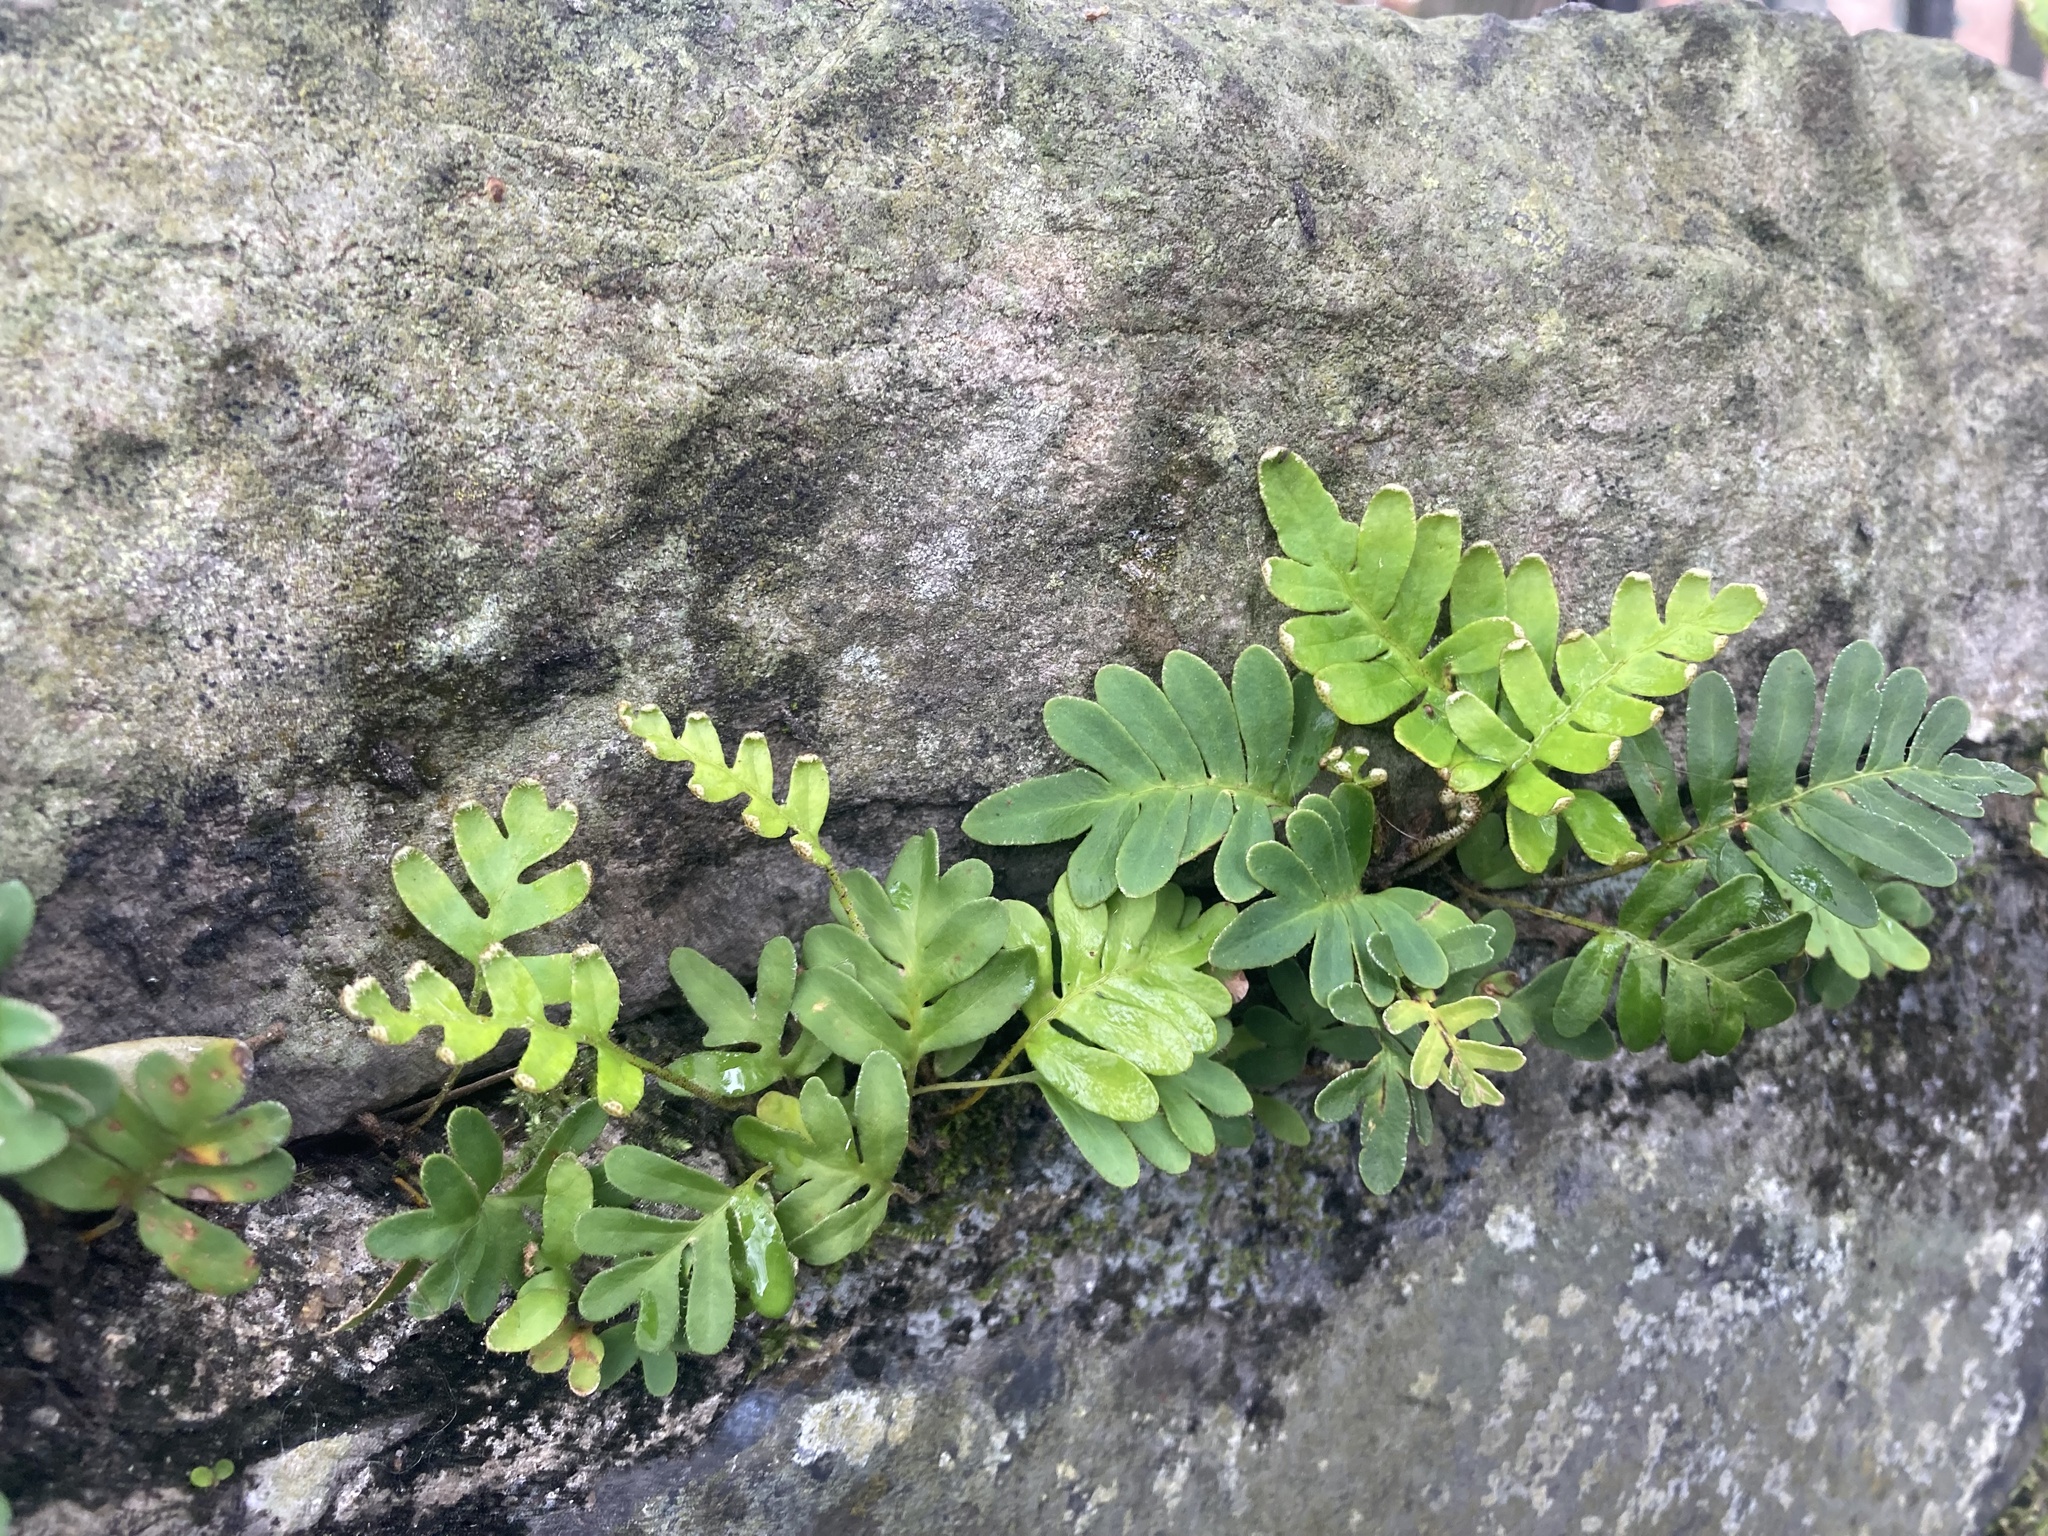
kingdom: Plantae
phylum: Tracheophyta
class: Polypodiopsida
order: Polypodiales
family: Polypodiaceae
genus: Pleopeltis
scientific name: Pleopeltis michauxiana
